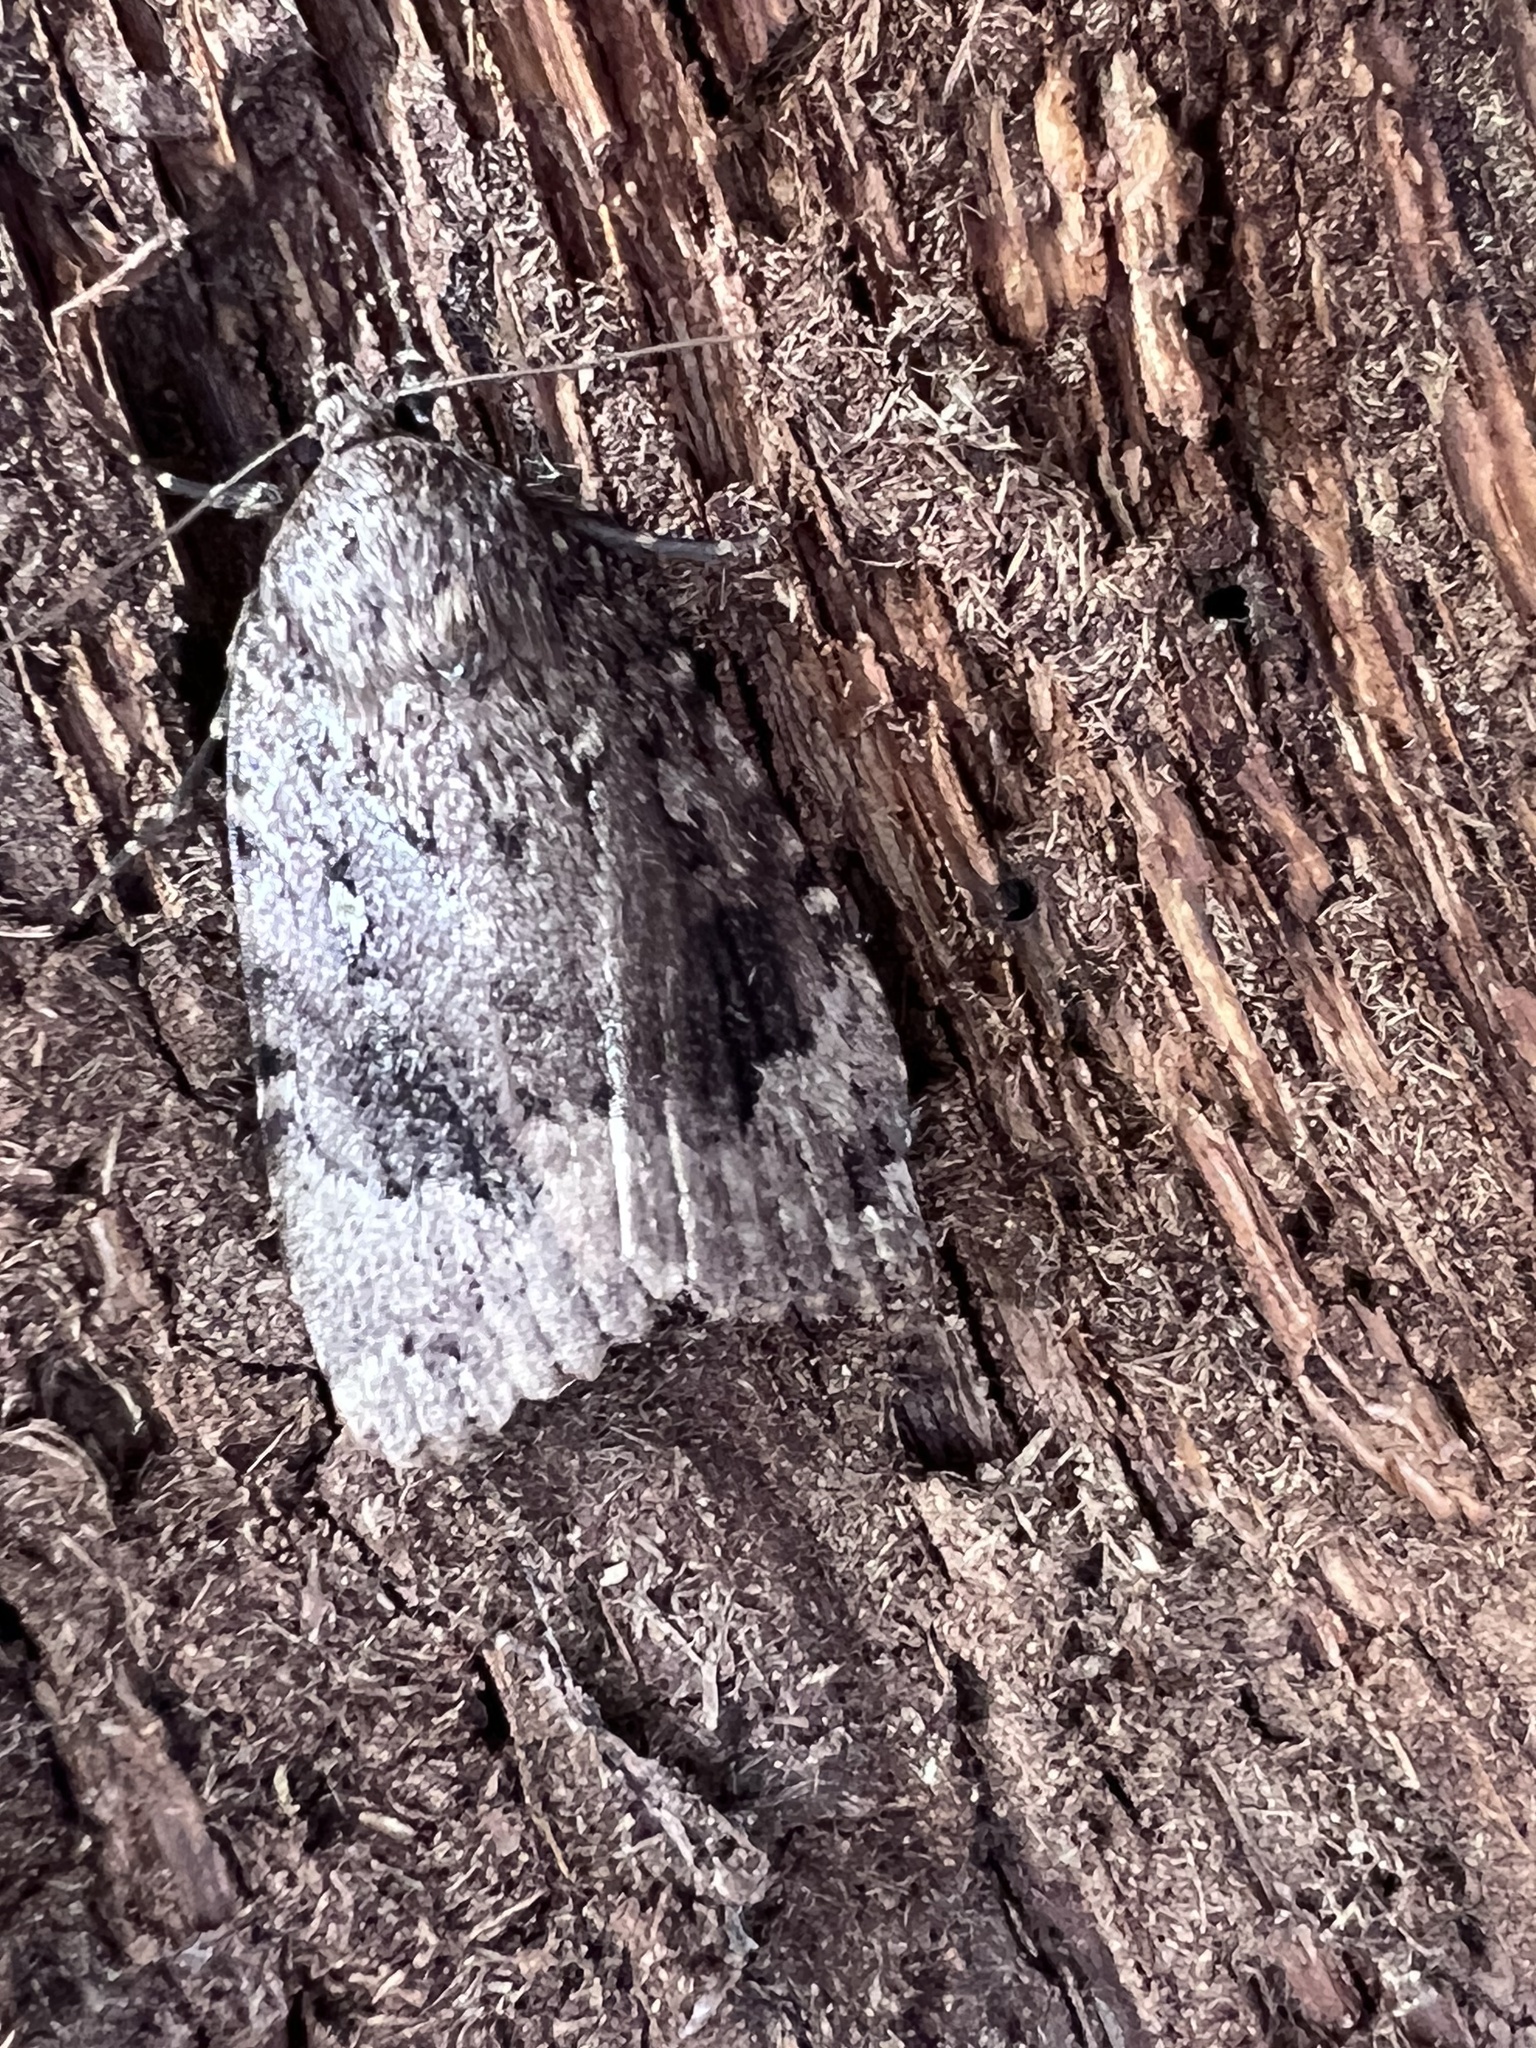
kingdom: Animalia
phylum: Arthropoda
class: Insecta
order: Lepidoptera
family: Noctuidae
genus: Amphipyra
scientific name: Amphipyra pyramidoides
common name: American copper underwing
